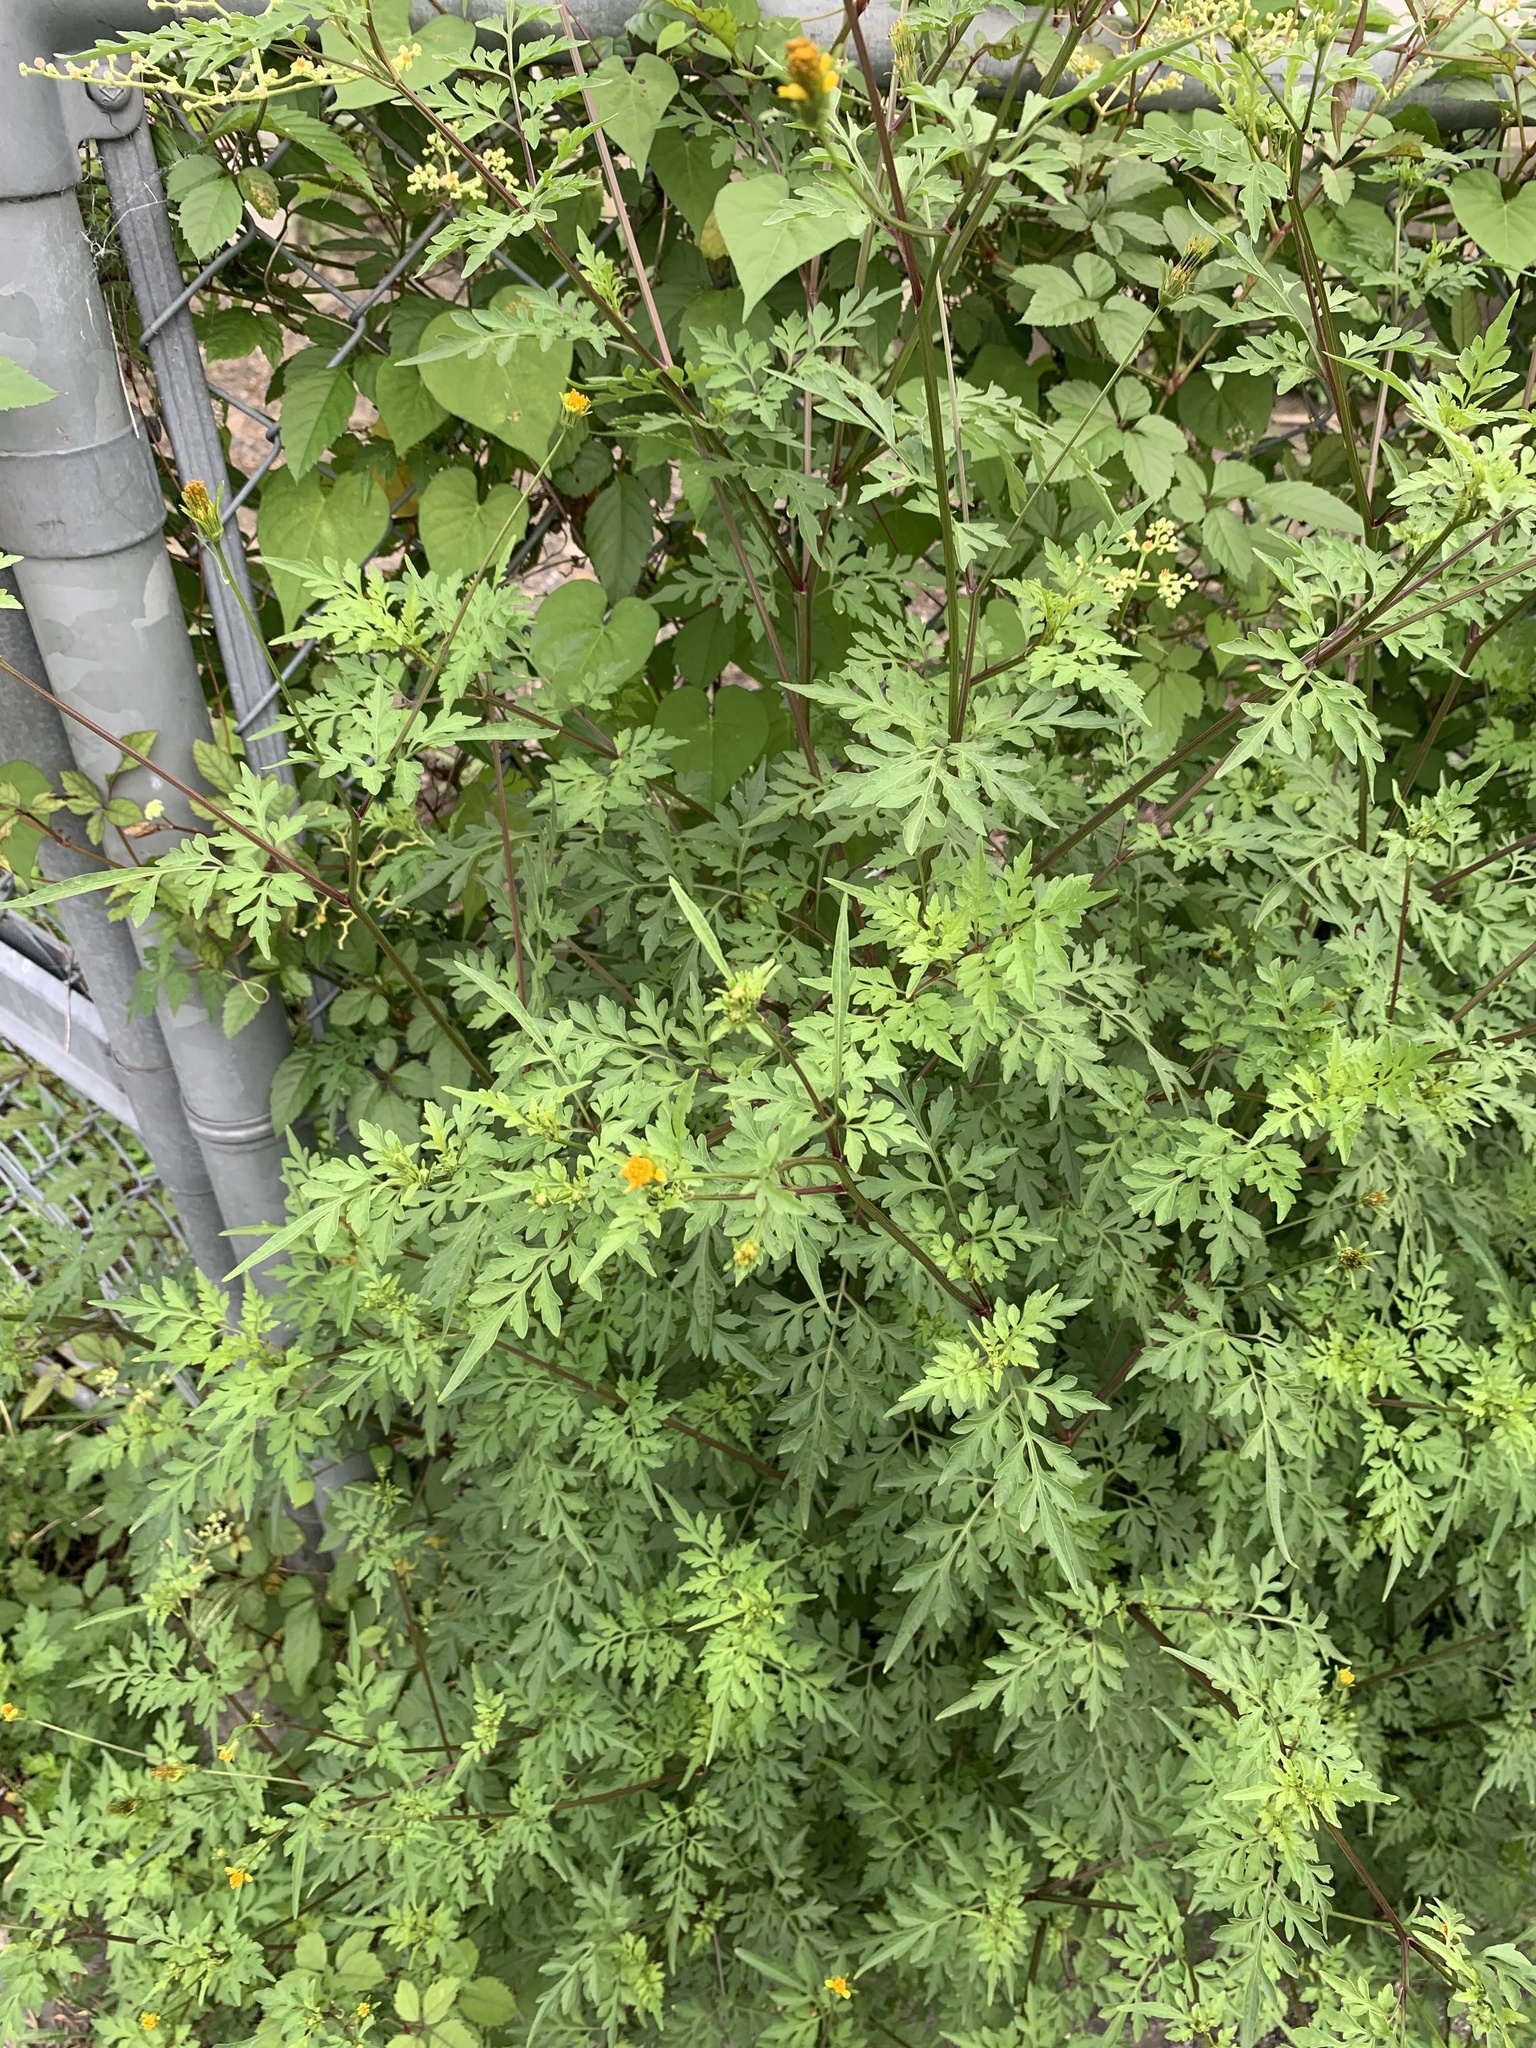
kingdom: Plantae
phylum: Tracheophyta
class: Magnoliopsida
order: Asterales
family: Asteraceae
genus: Bidens
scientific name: Bidens bipinnata
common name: Spanish-needles
